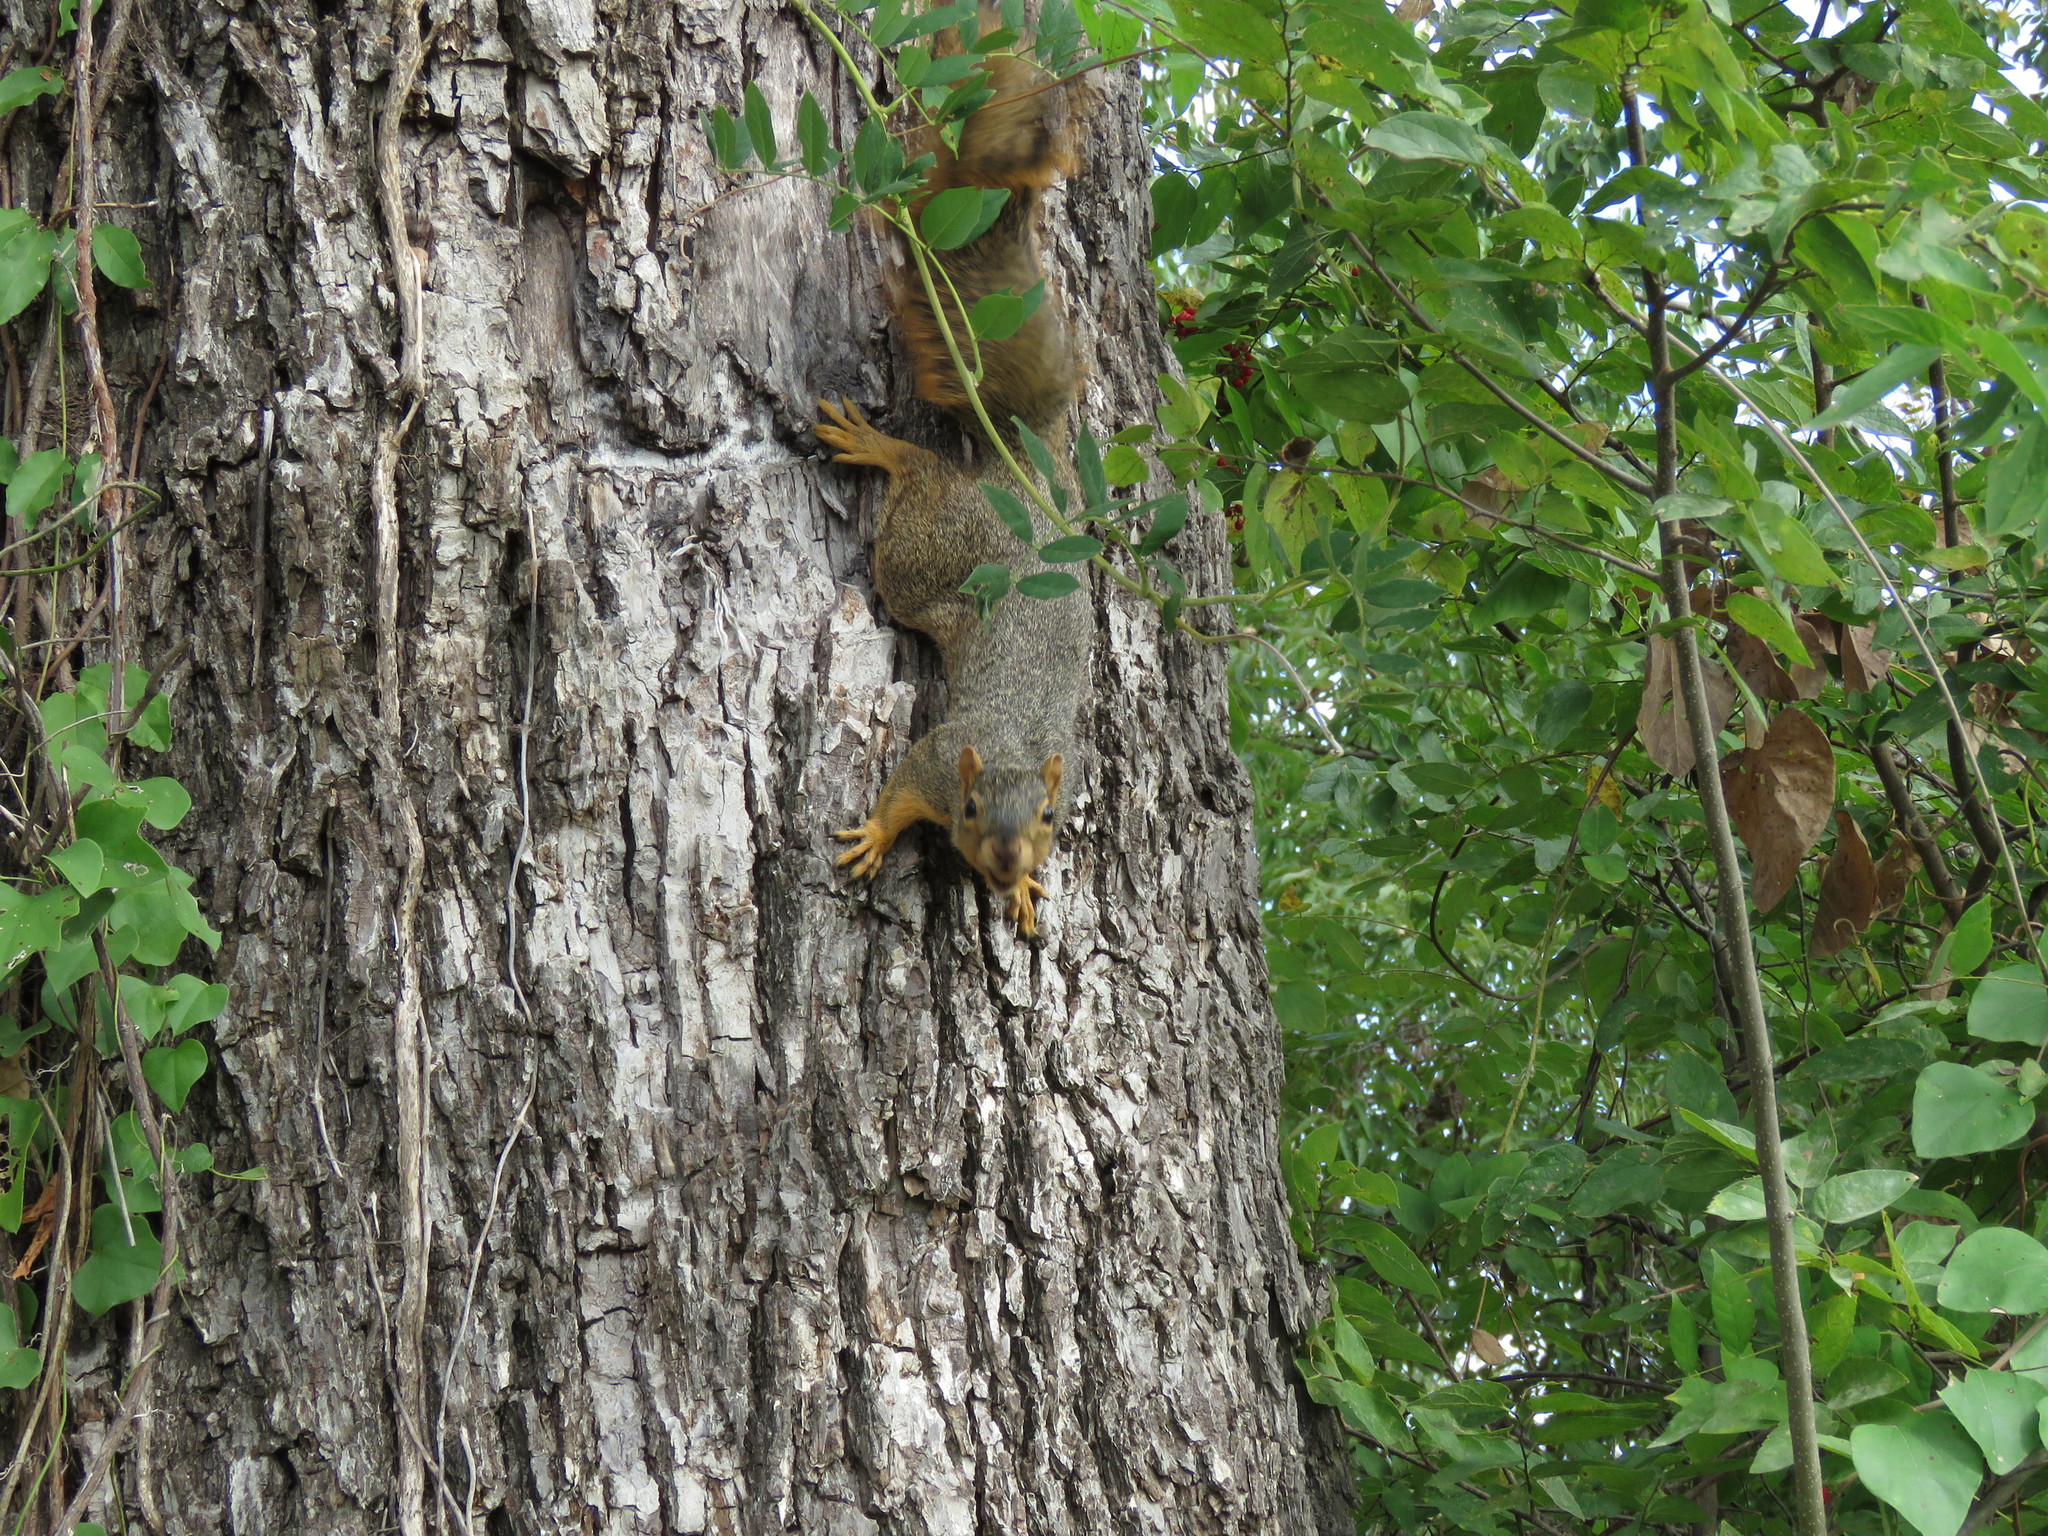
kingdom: Animalia
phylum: Chordata
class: Mammalia
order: Rodentia
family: Sciuridae
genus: Sciurus
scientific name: Sciurus niger
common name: Fox squirrel
